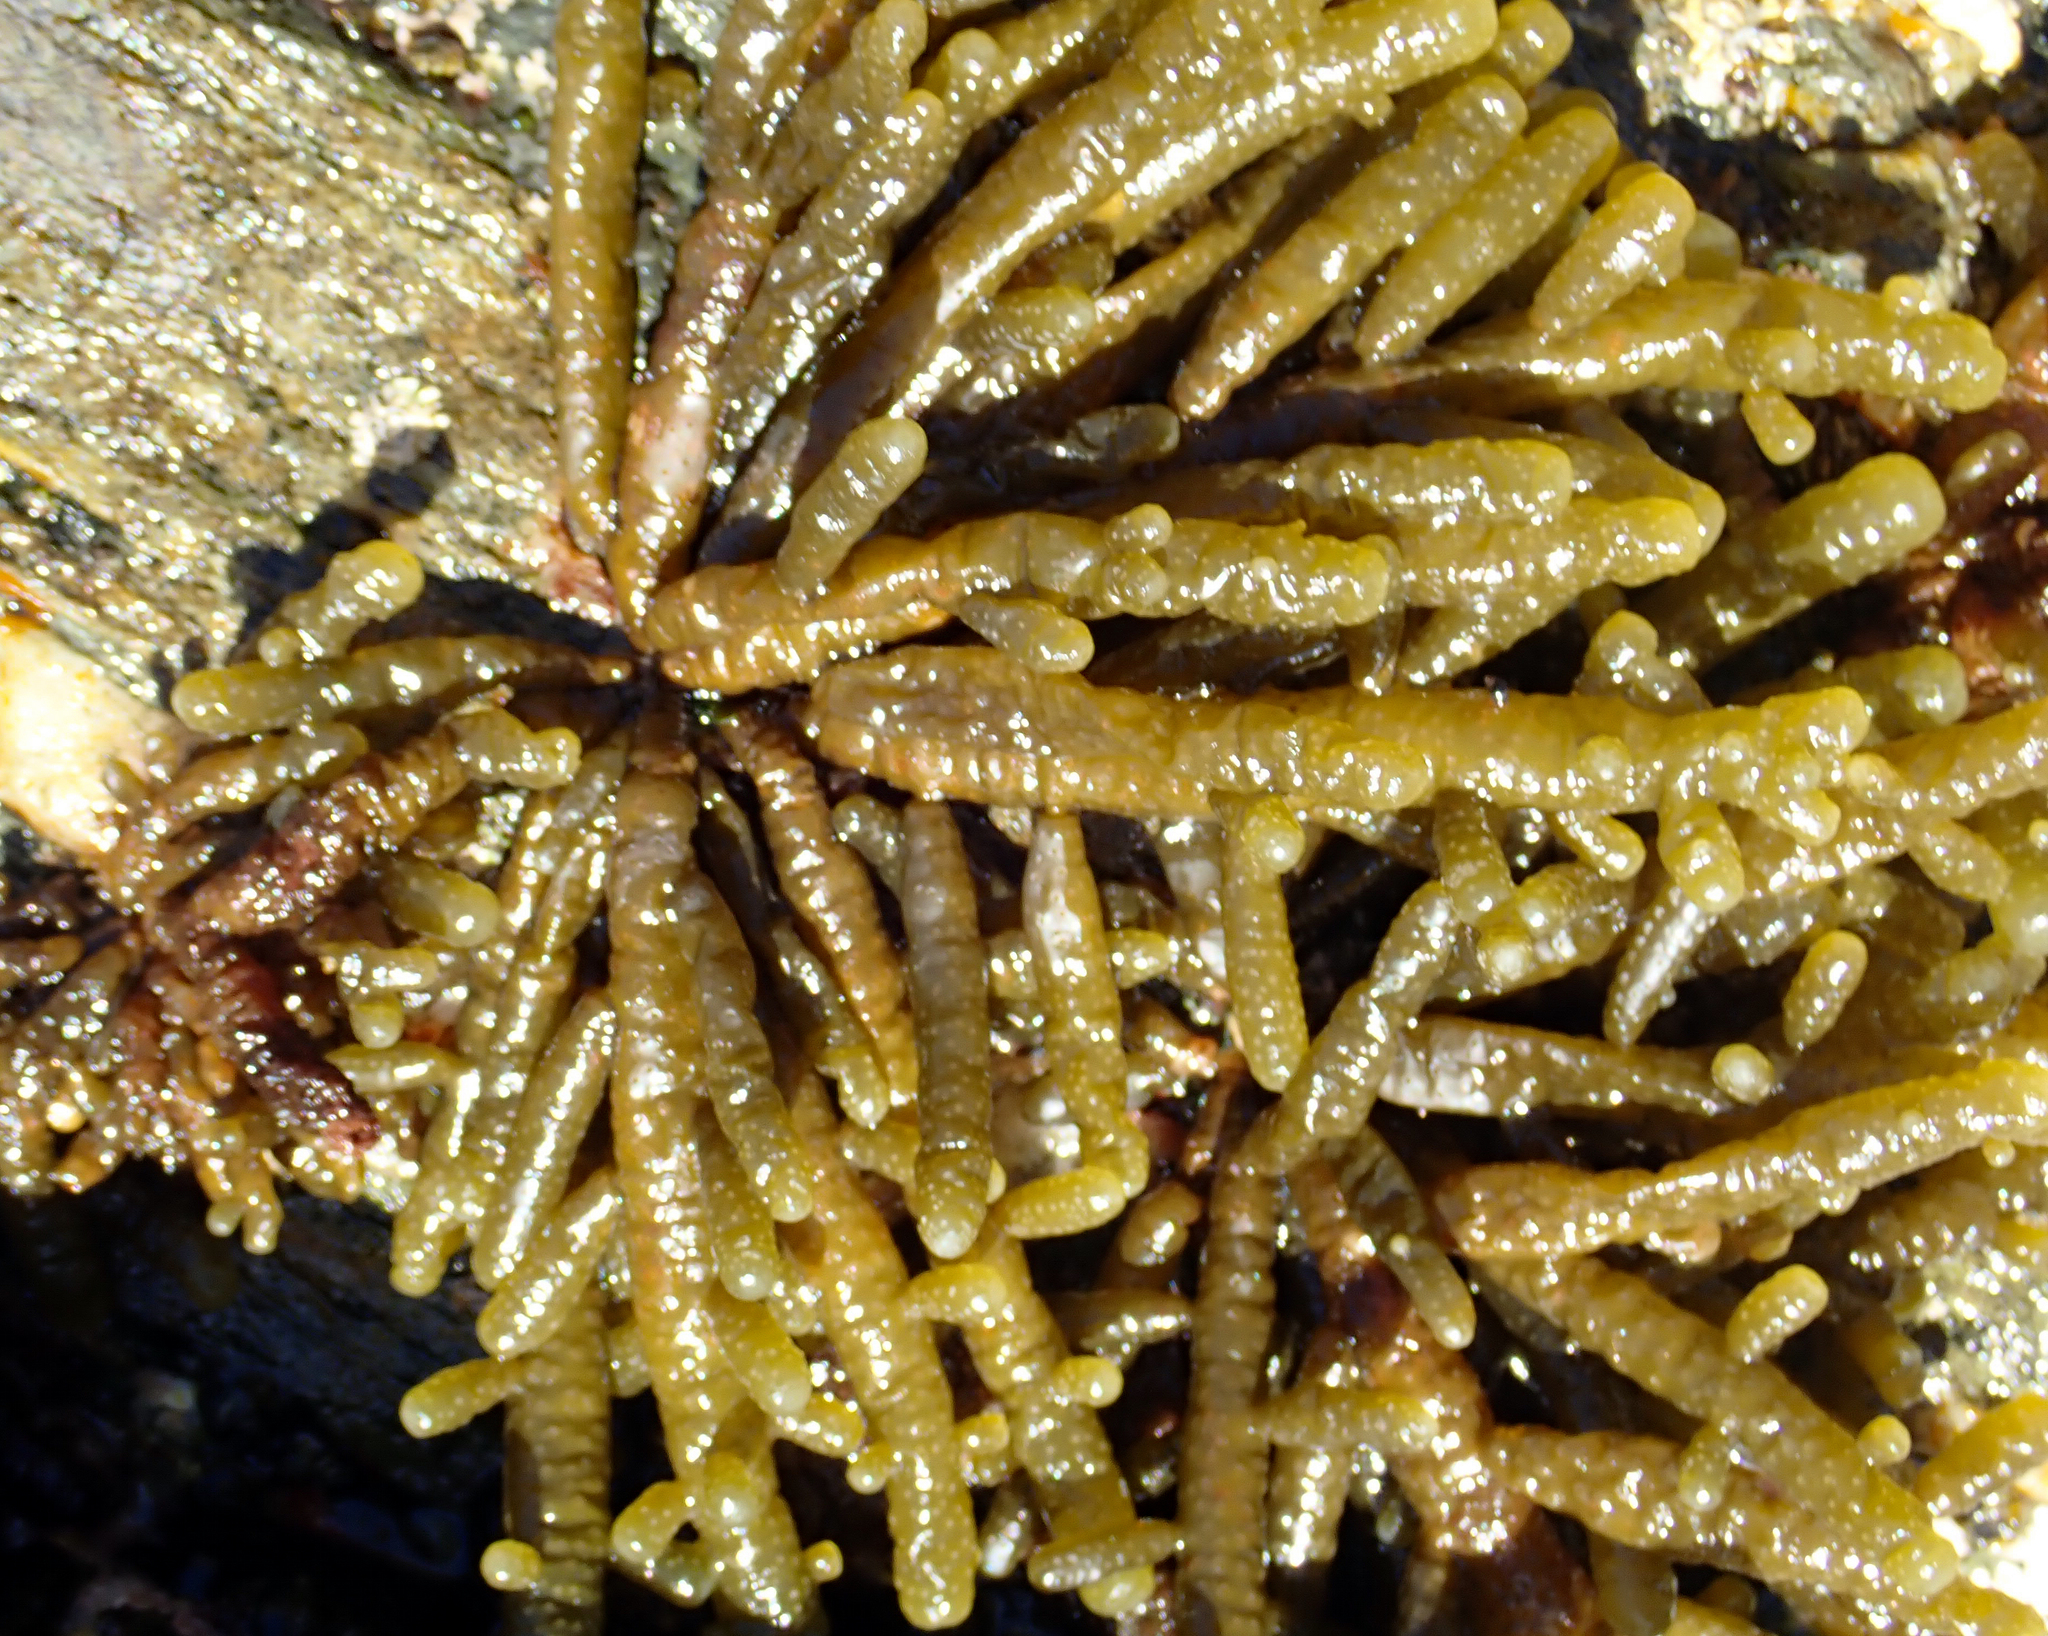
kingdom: Chromista
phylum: Ochrophyta
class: Phaeophyceae
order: Scytothamnales
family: Splachnidiaceae
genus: Splachnidium
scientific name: Splachnidium rugosum
